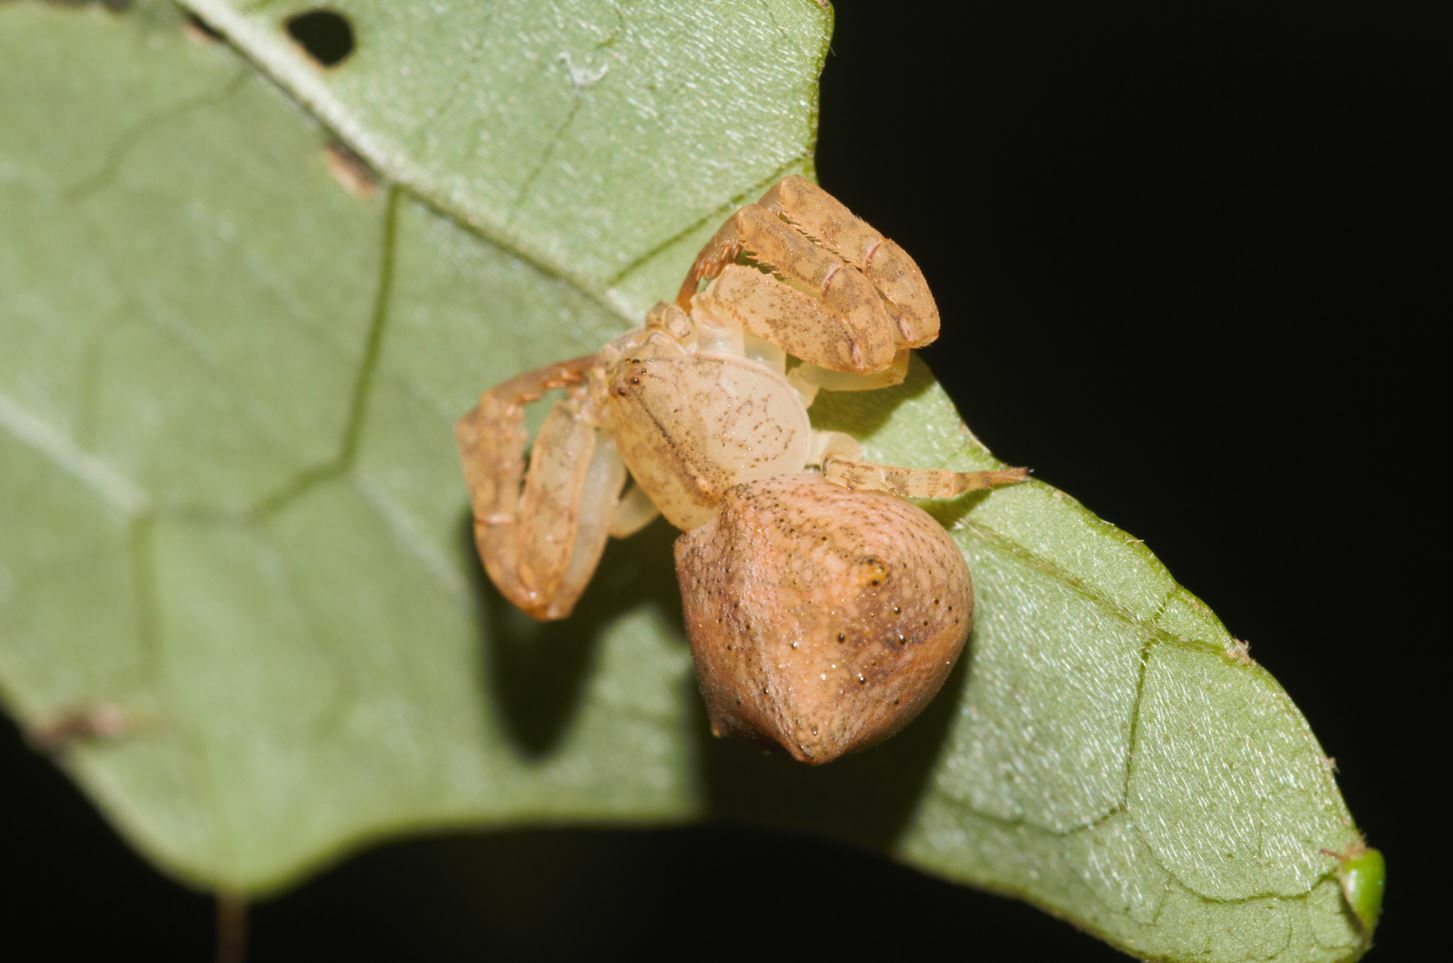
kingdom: Animalia
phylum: Arthropoda
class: Arachnida
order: Araneae
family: Thomisidae
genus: Epicadus
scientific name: Epicadus taczanowskii
